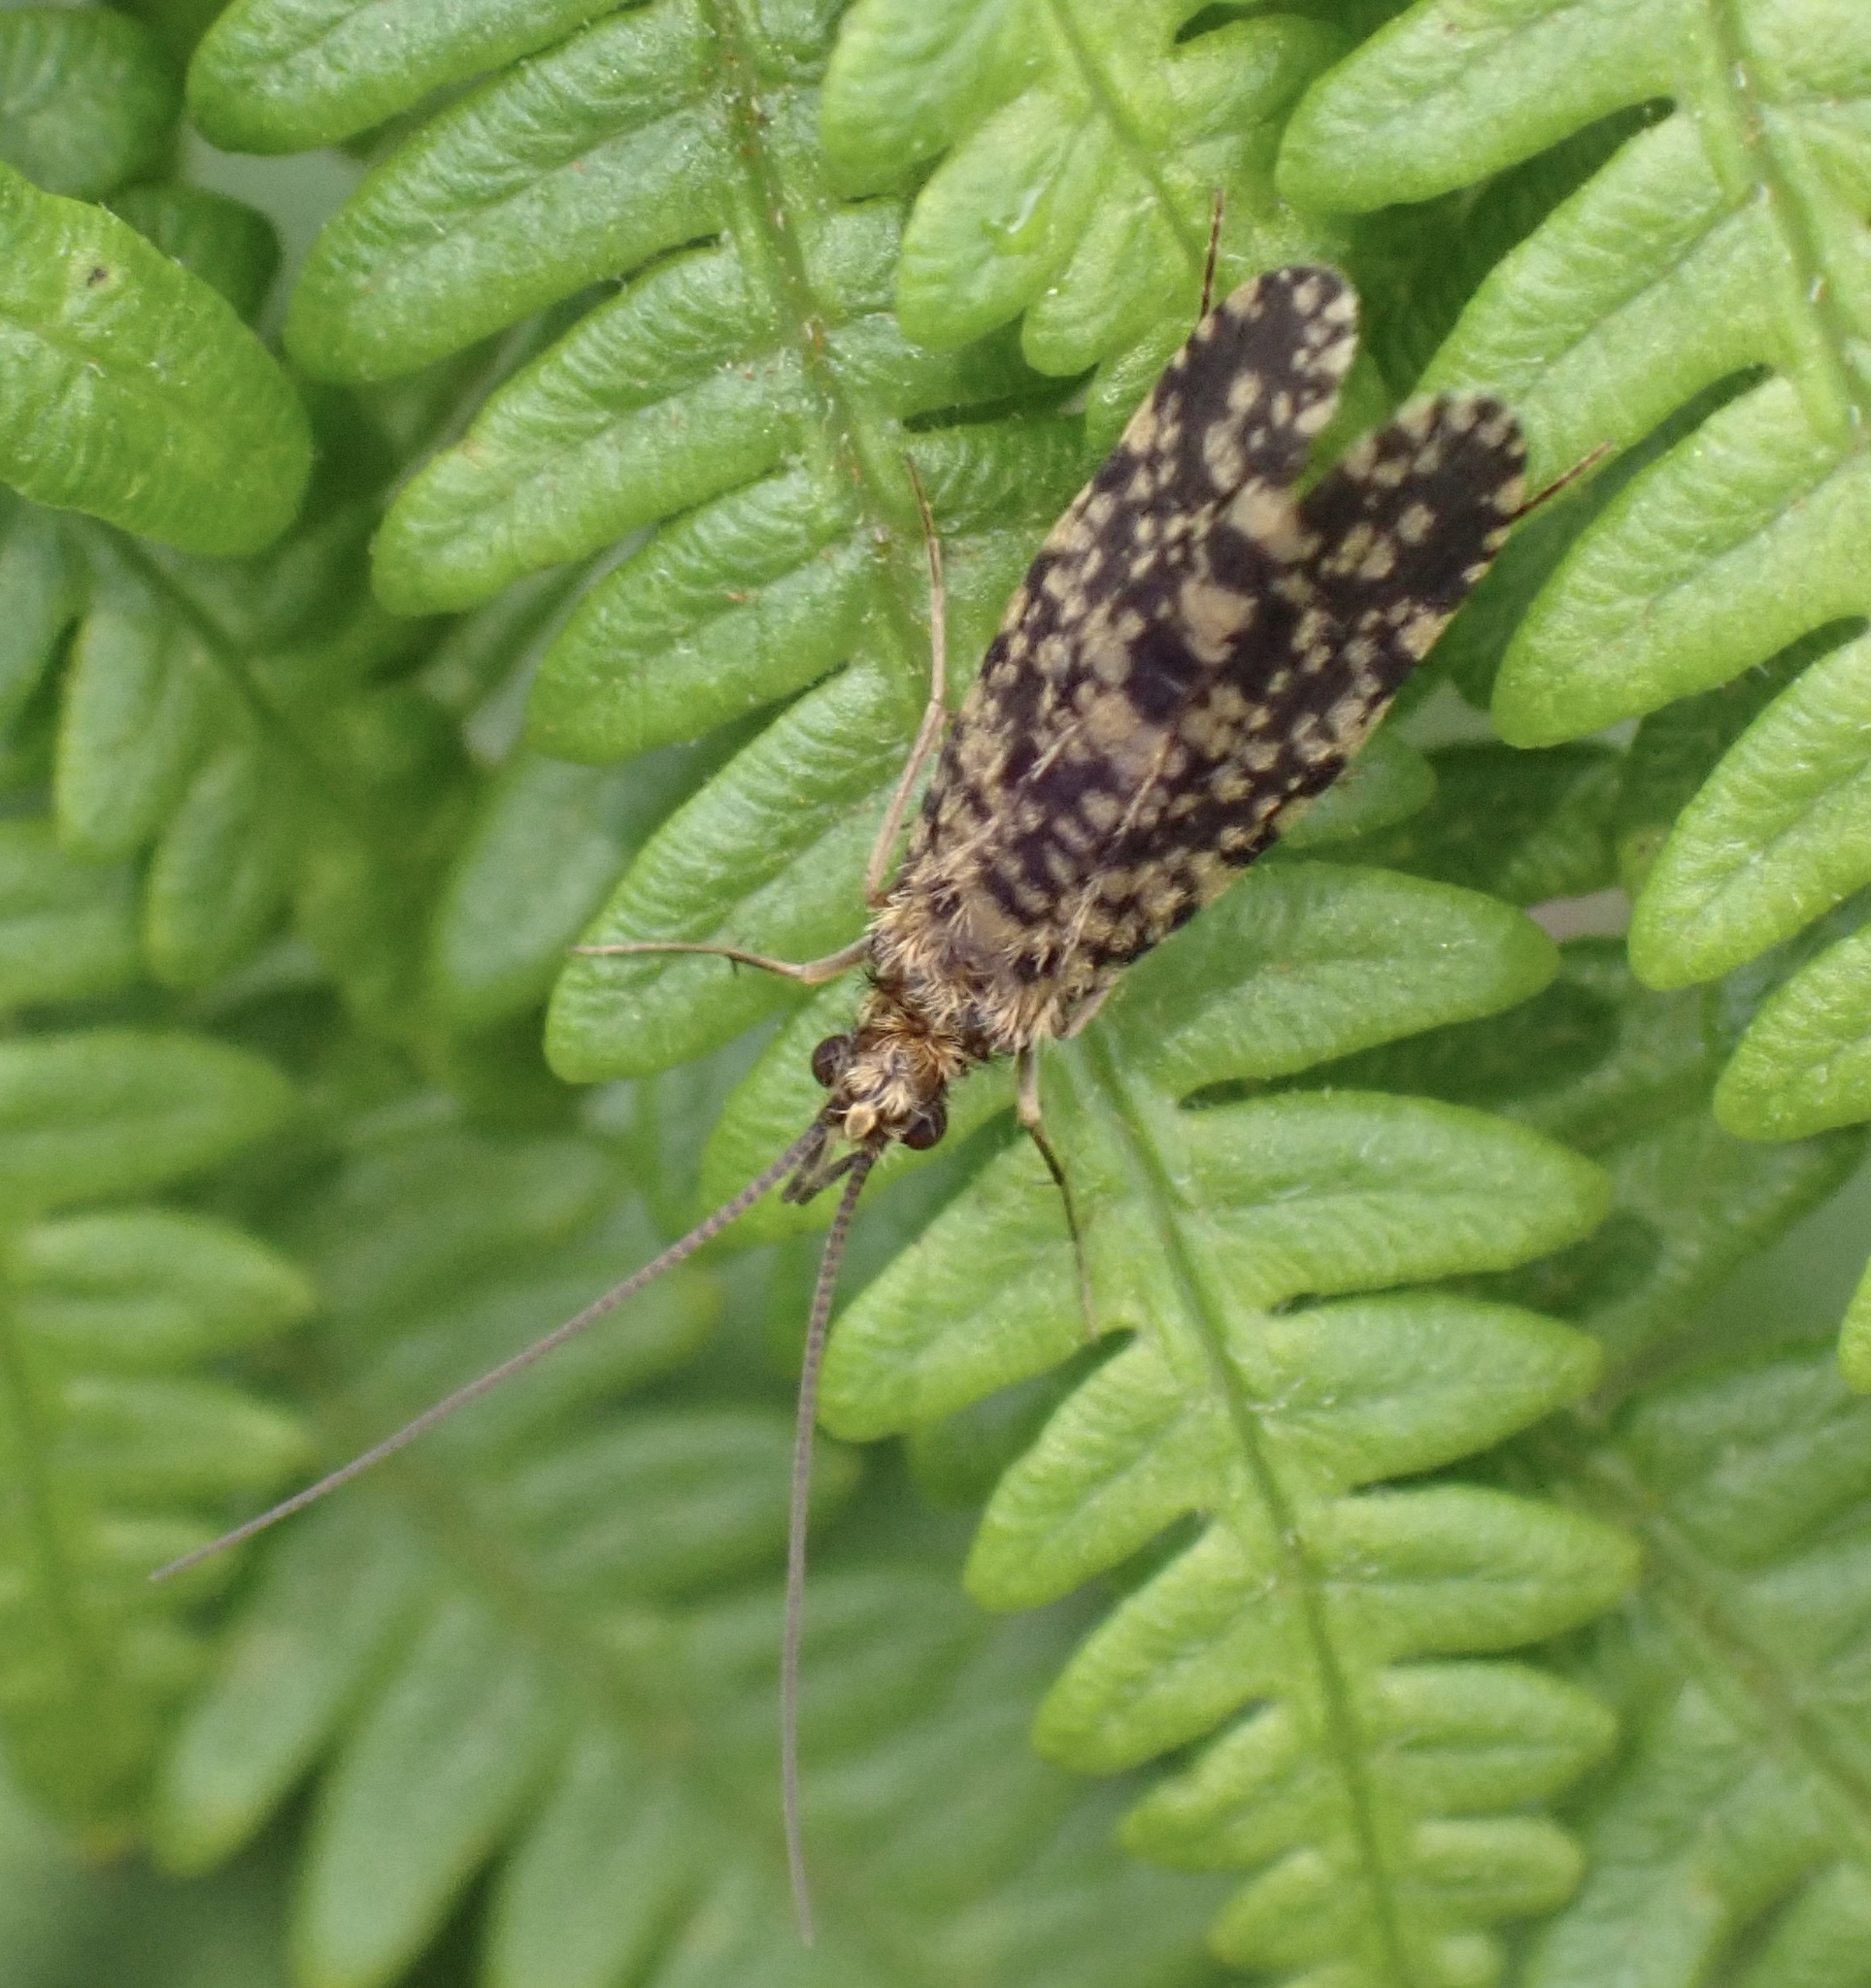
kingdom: Animalia
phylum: Arthropoda
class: Insecta
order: Trichoptera
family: Philopotamidae
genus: Philopotamus
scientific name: Philopotamus montanus
